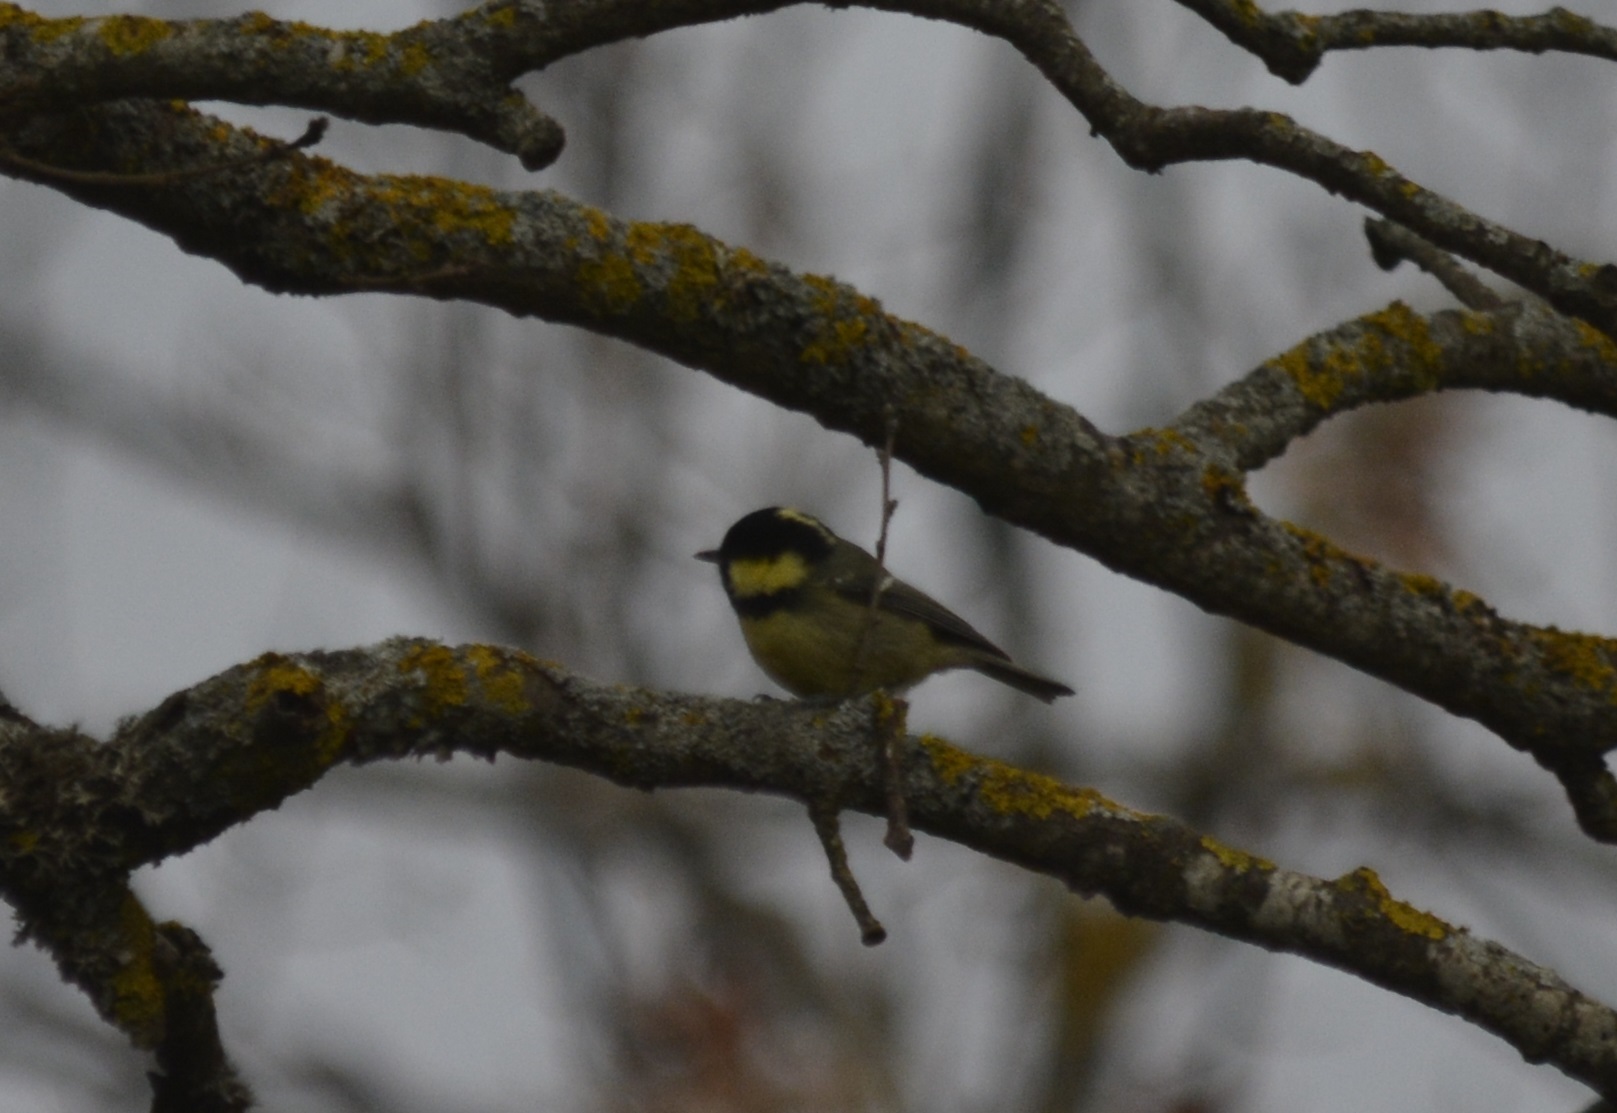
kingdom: Animalia
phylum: Chordata
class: Aves
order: Passeriformes
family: Paridae
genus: Periparus
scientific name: Periparus ater
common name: Coal tit
